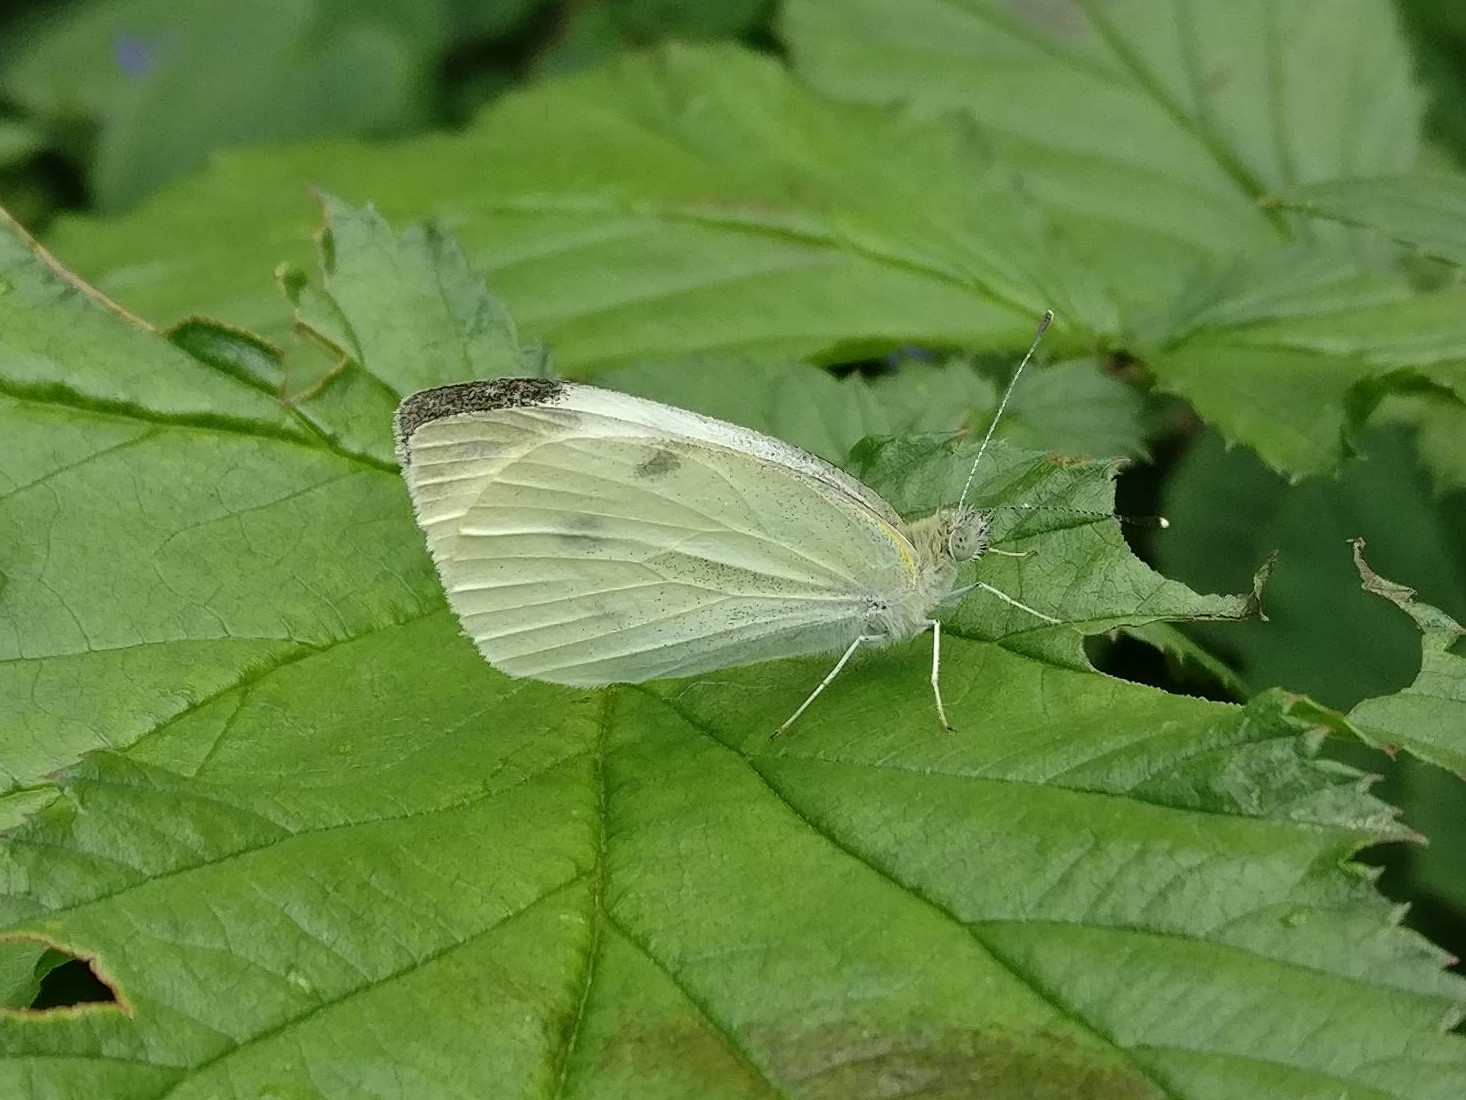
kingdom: Animalia
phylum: Arthropoda
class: Insecta
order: Lepidoptera
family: Pieridae
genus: Pieris
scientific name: Pieris rapae
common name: Small white
